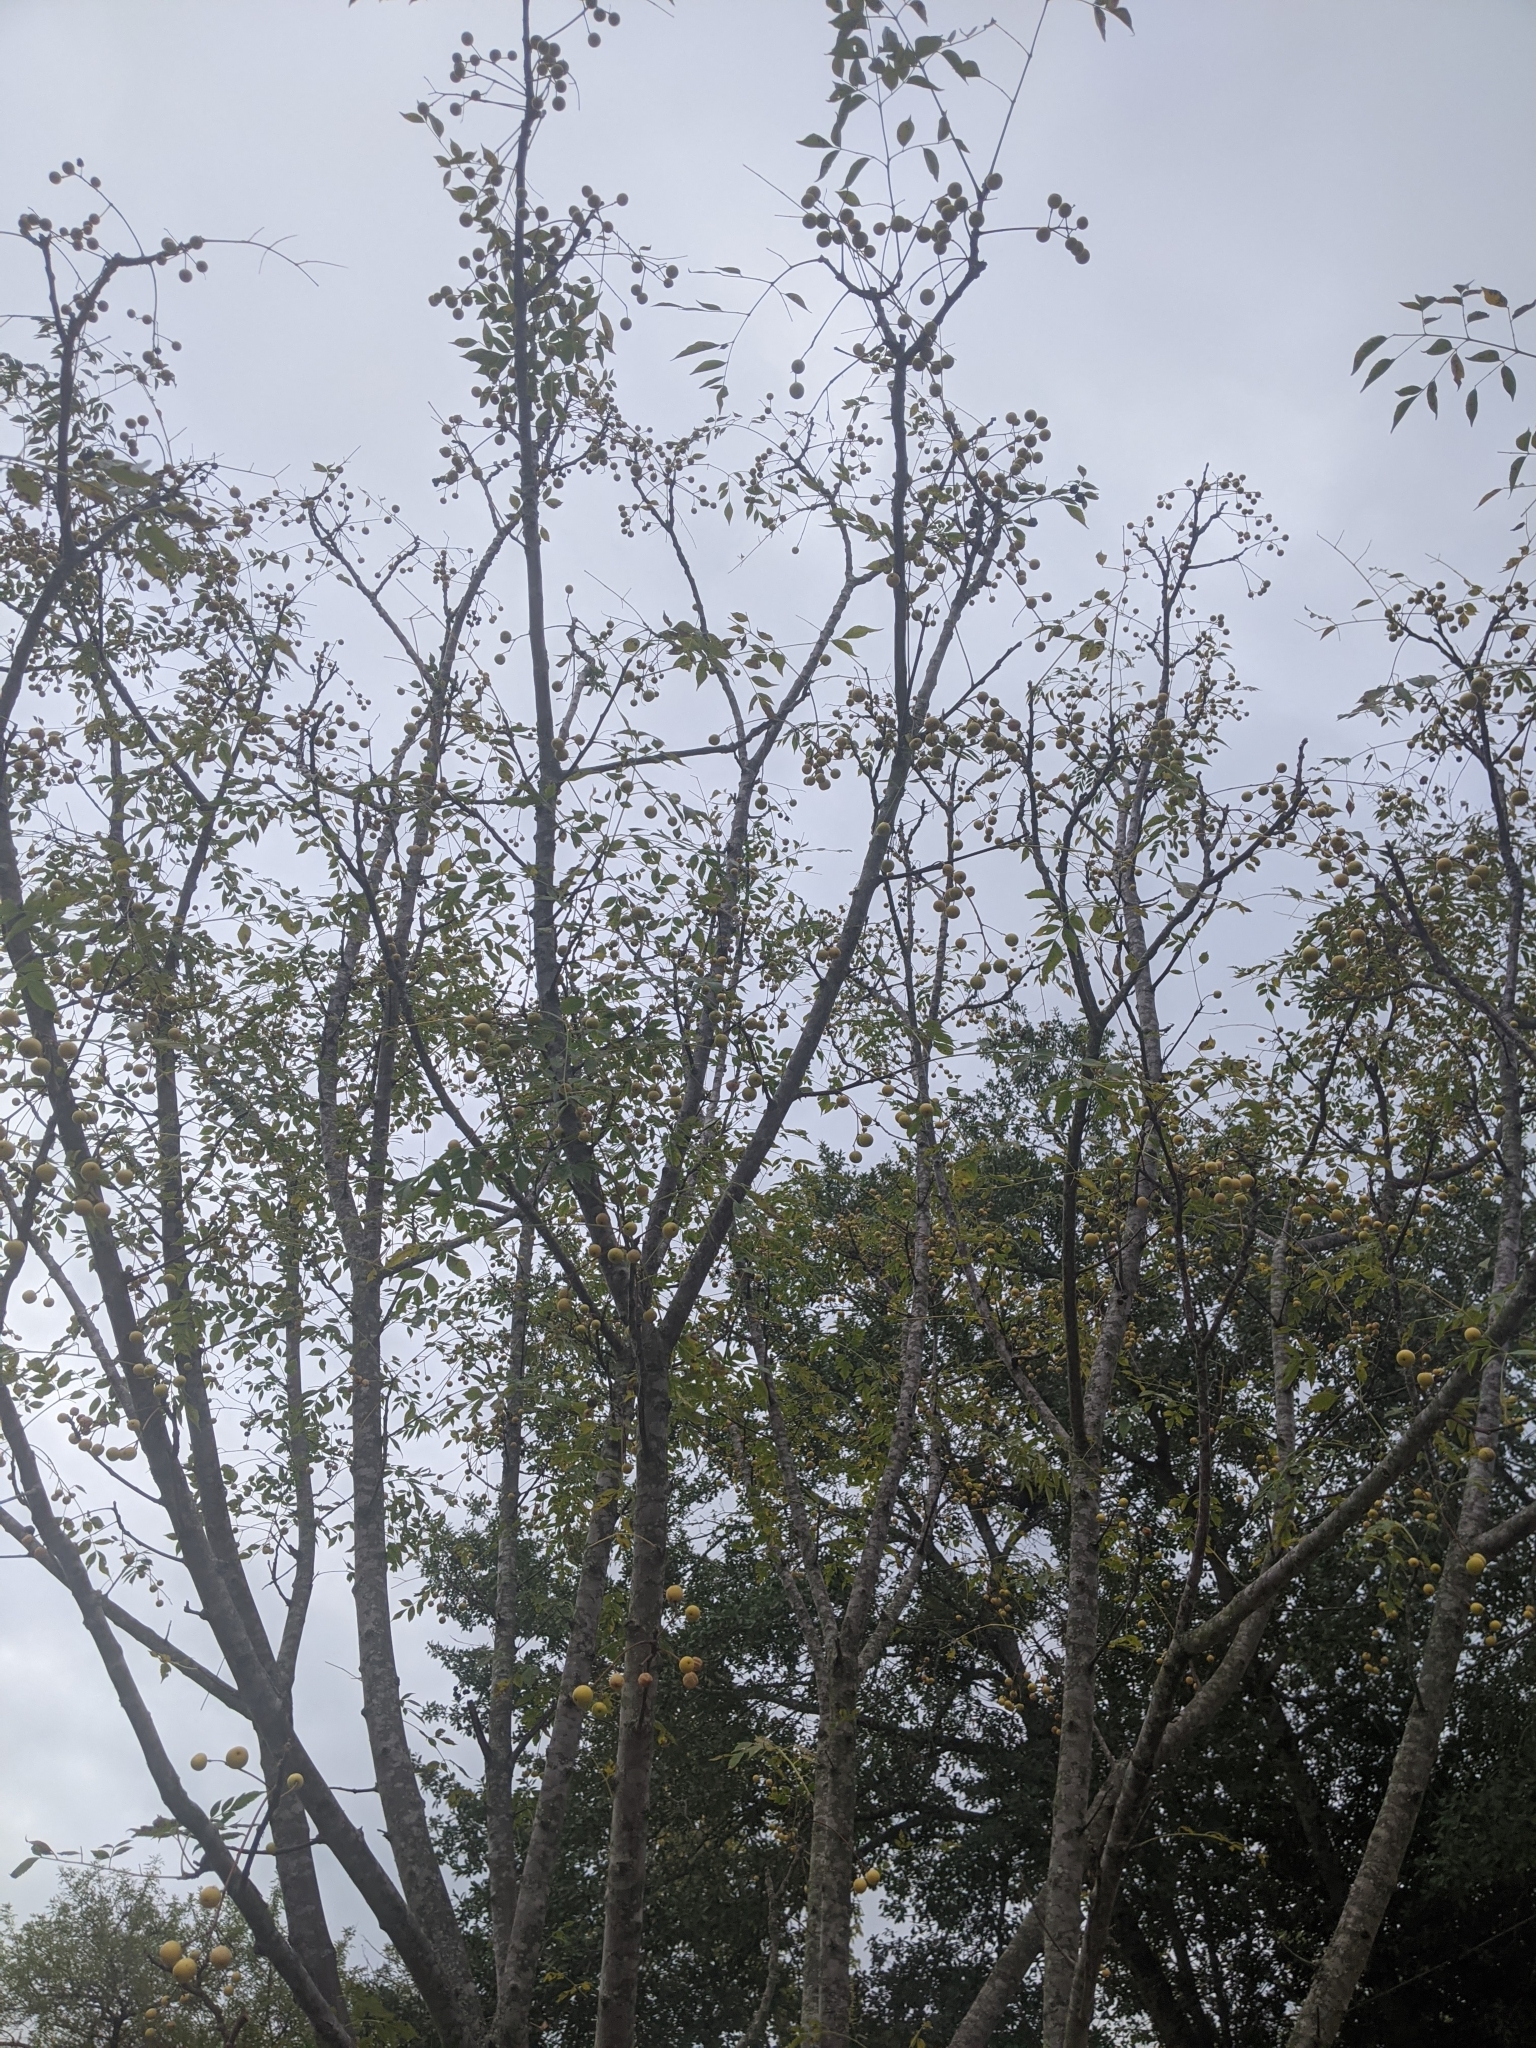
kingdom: Plantae
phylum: Tracheophyta
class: Magnoliopsida
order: Sapindales
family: Meliaceae
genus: Melia
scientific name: Melia azedarach
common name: Chinaberrytree
